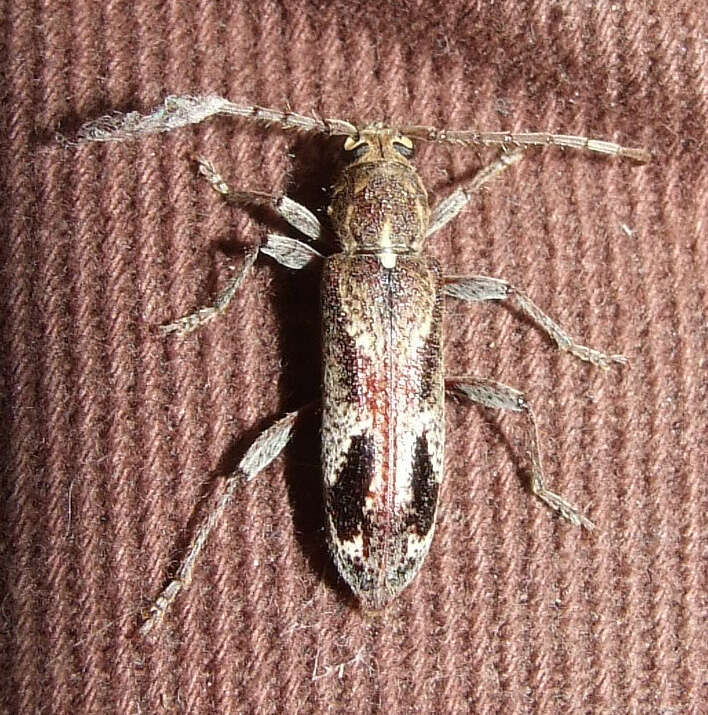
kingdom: Animalia
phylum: Arthropoda
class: Insecta
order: Coleoptera
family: Cerambycidae
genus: Phacodes
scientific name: Phacodes personatus
